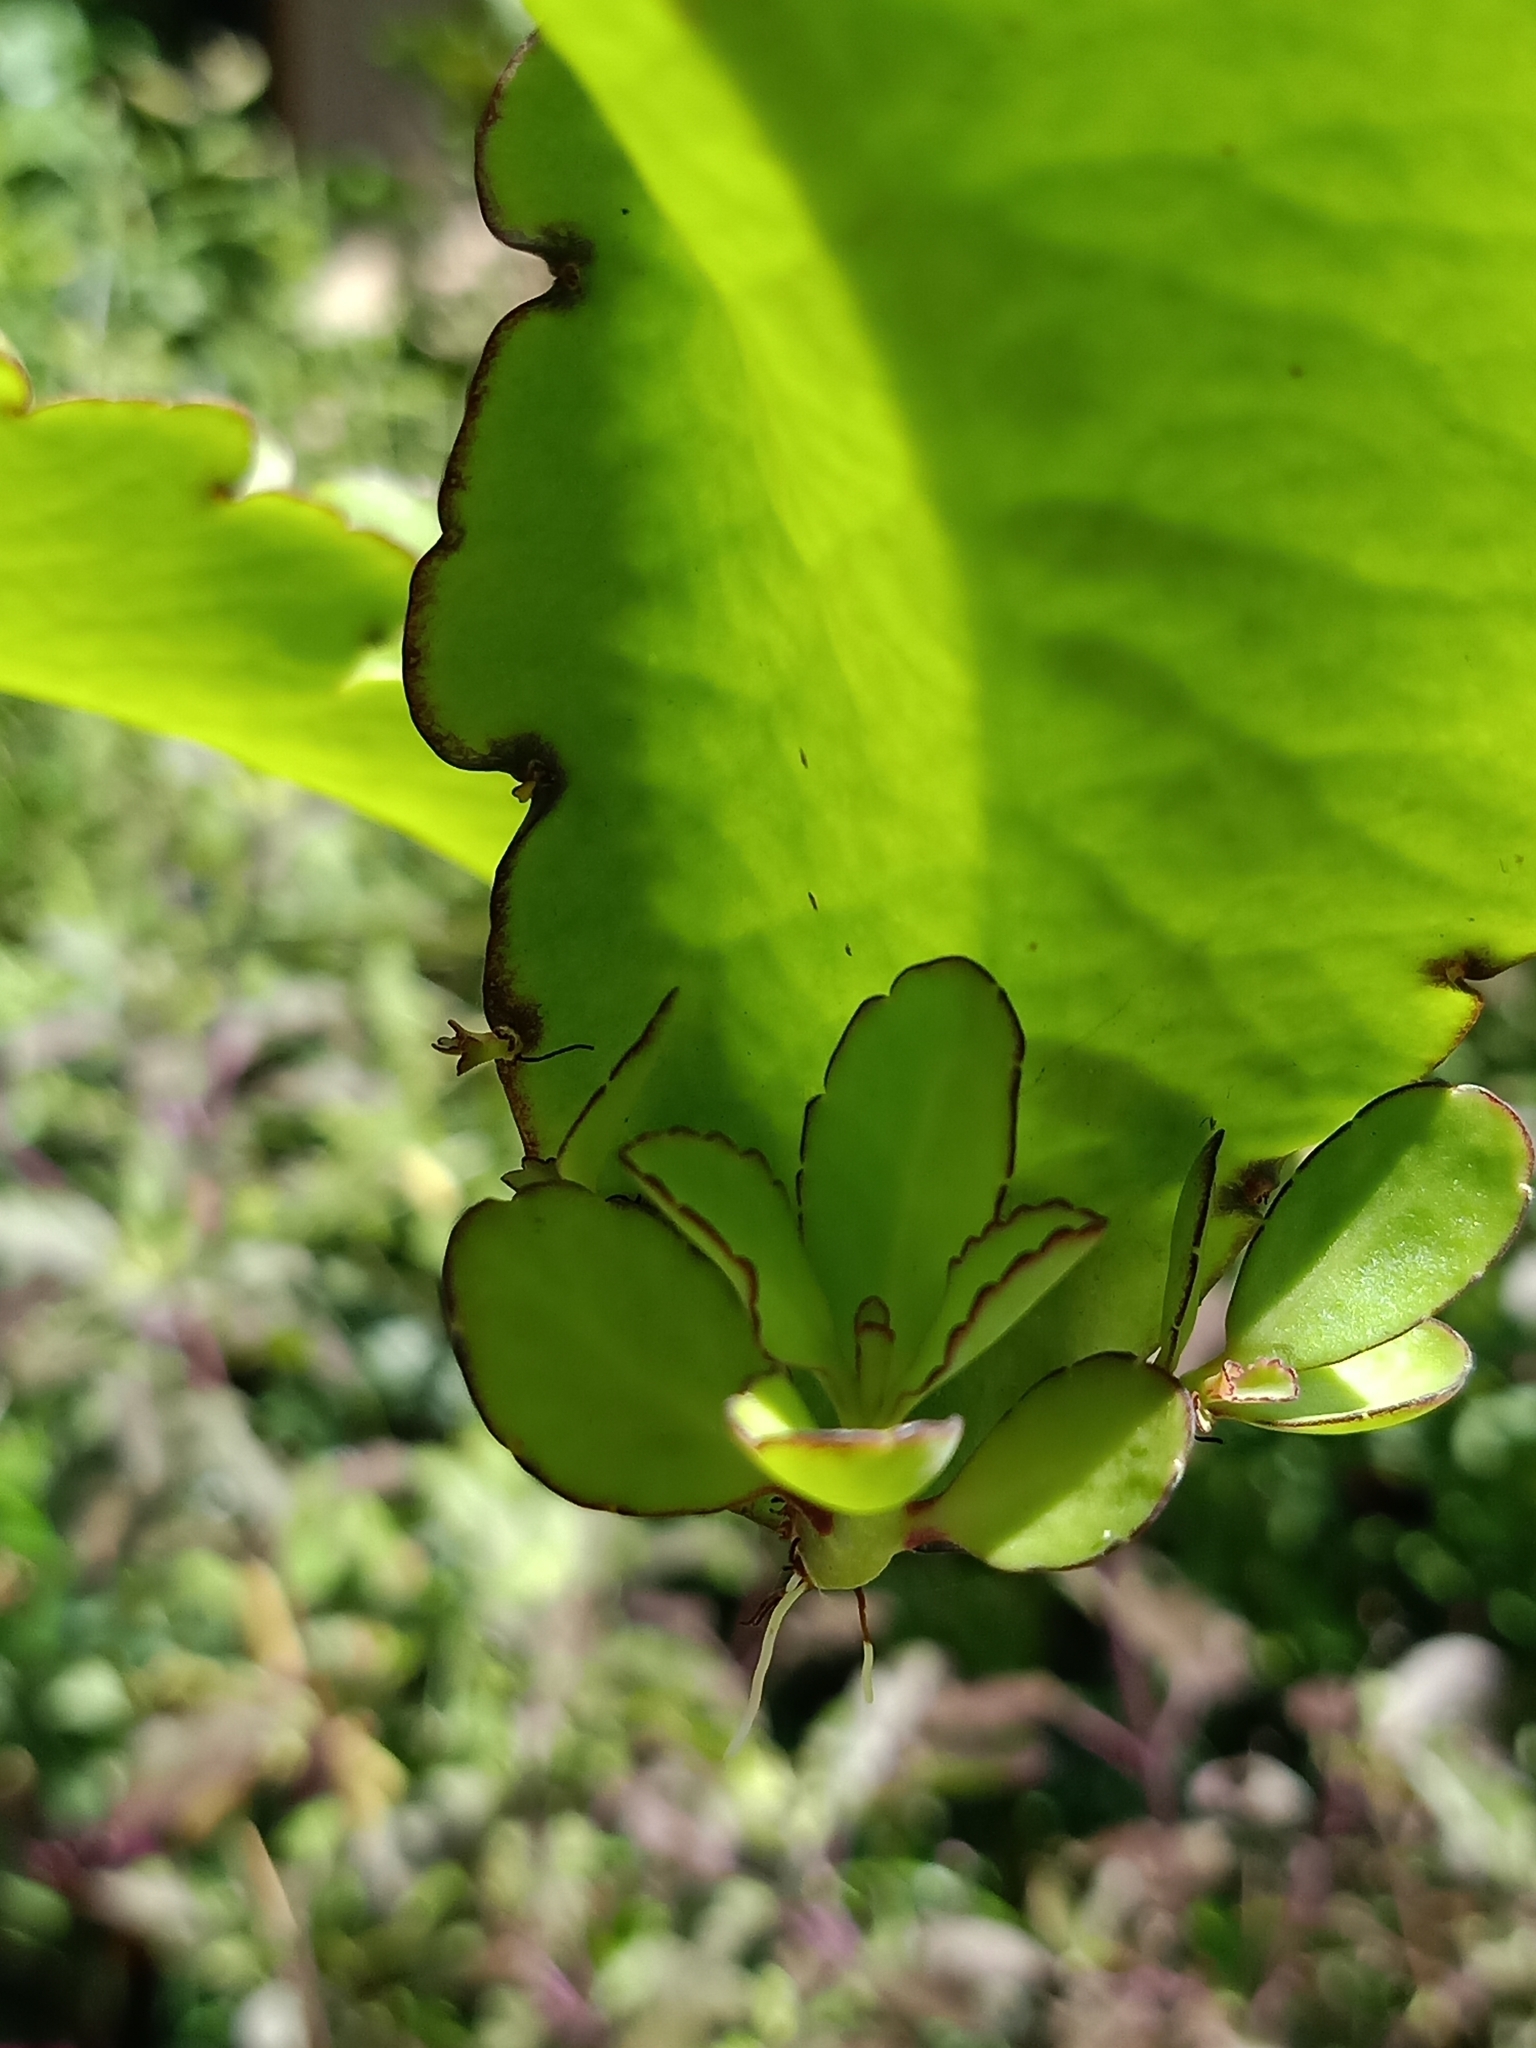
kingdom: Plantae
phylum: Tracheophyta
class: Magnoliopsida
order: Saxifragales
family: Crassulaceae
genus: Kalanchoe
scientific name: Kalanchoe pinnata
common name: Cathedral bells
